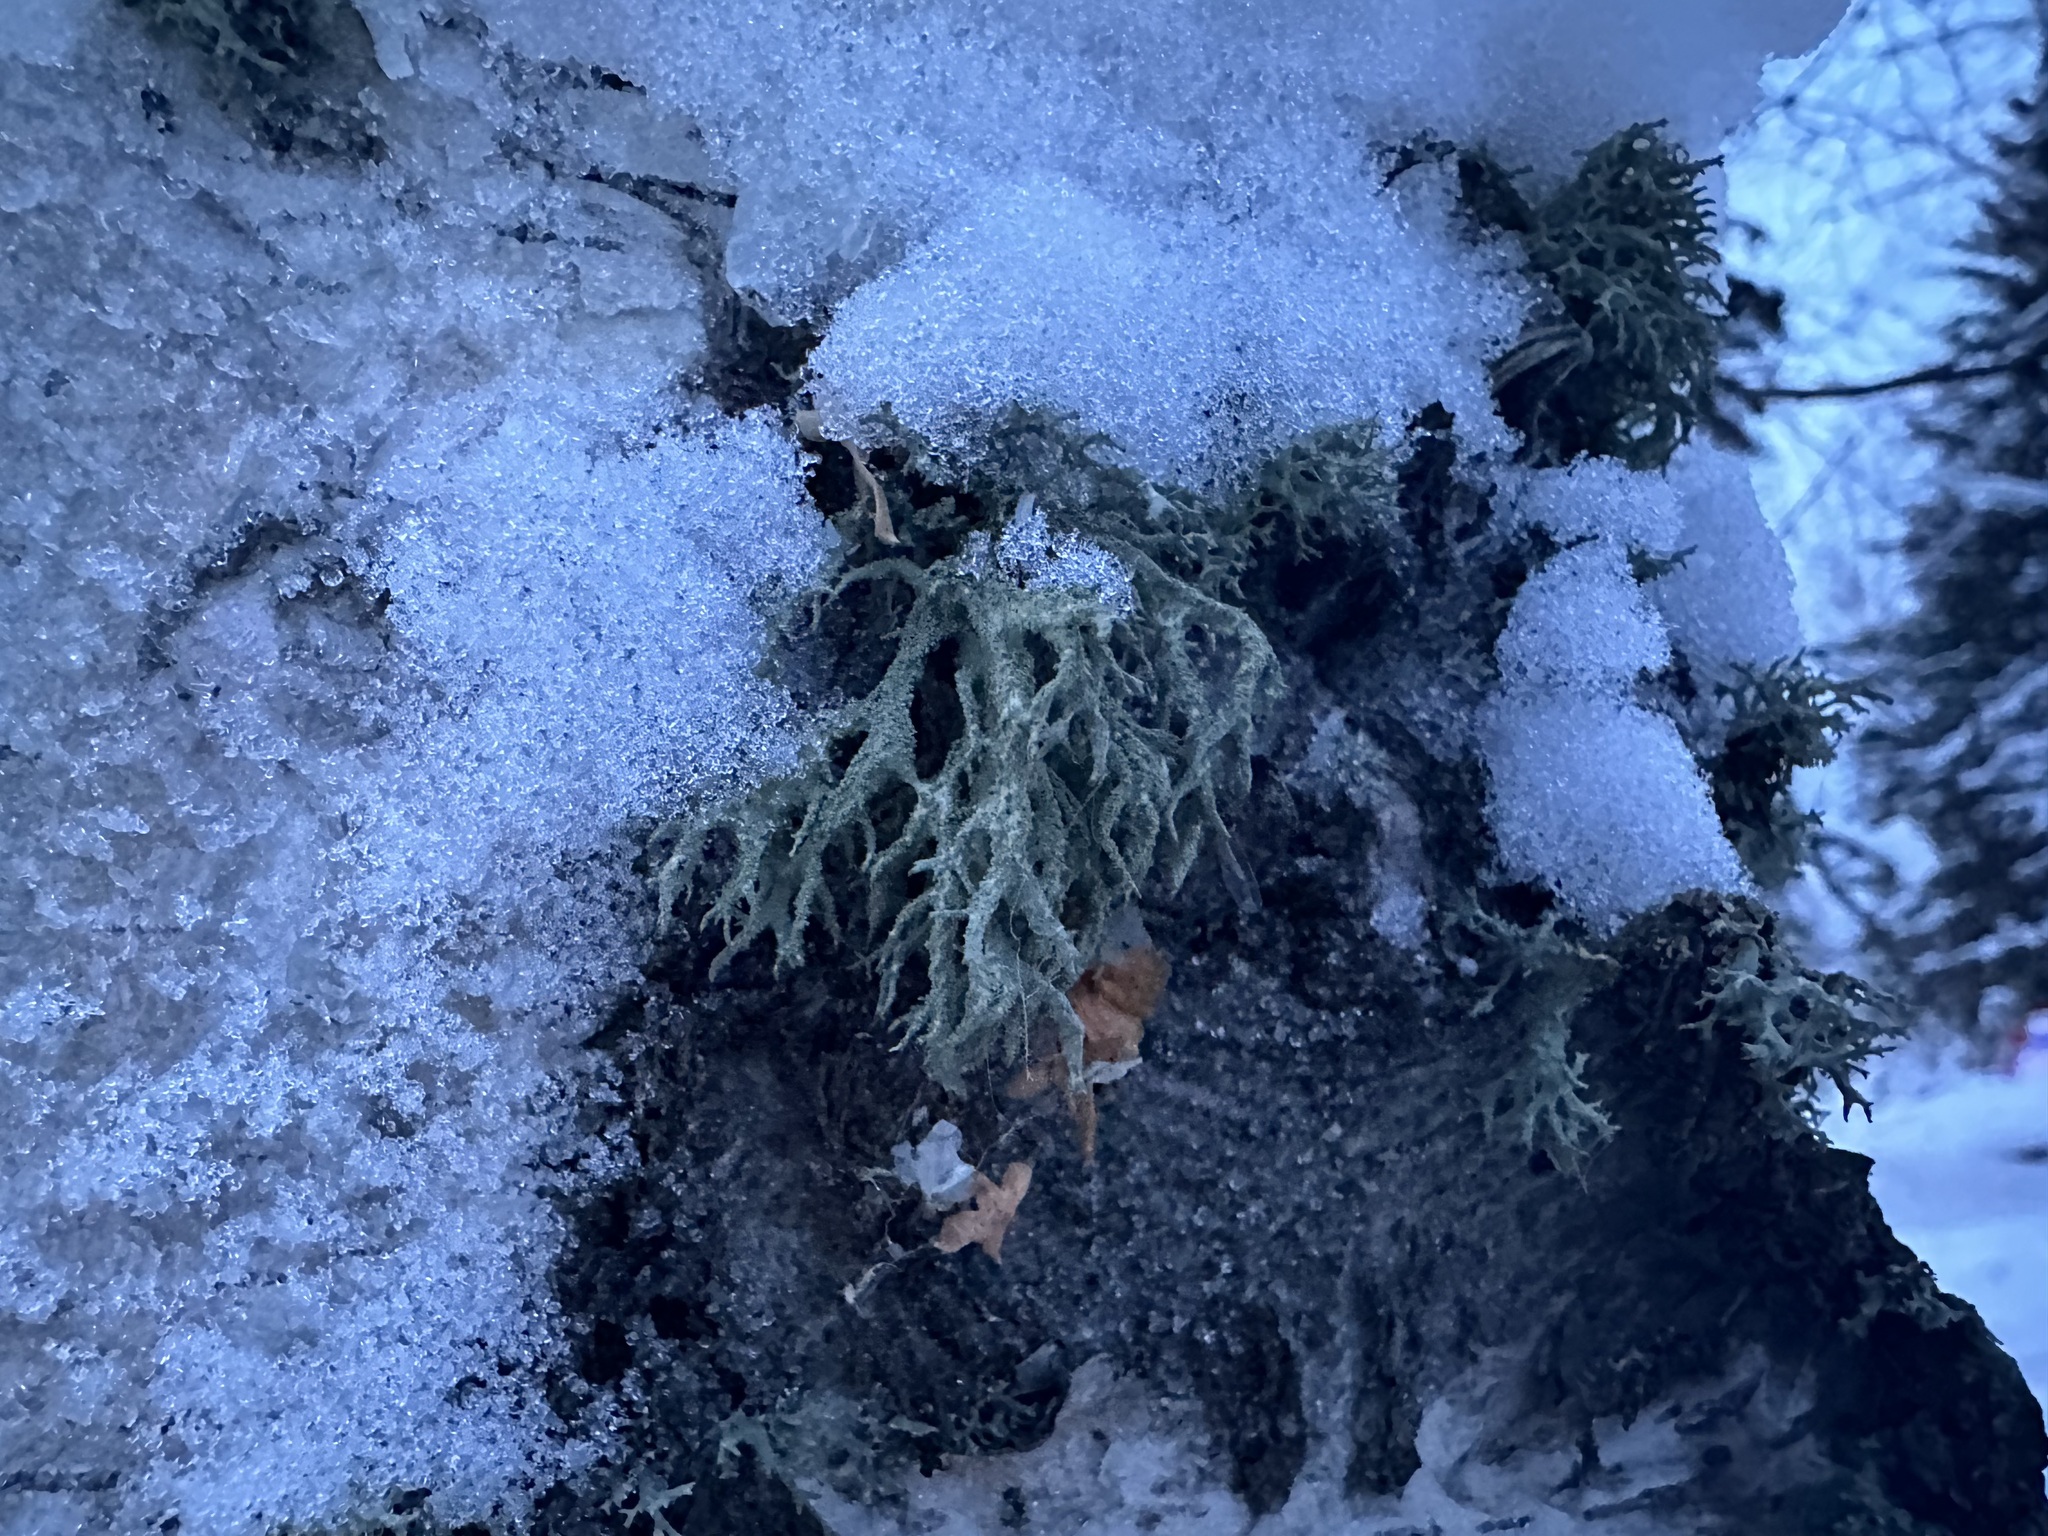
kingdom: Fungi
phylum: Ascomycota
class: Lecanoromycetes
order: Lecanorales
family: Parmeliaceae
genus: Evernia
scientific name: Evernia mesomorpha
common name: Boreal oak moss lichen
